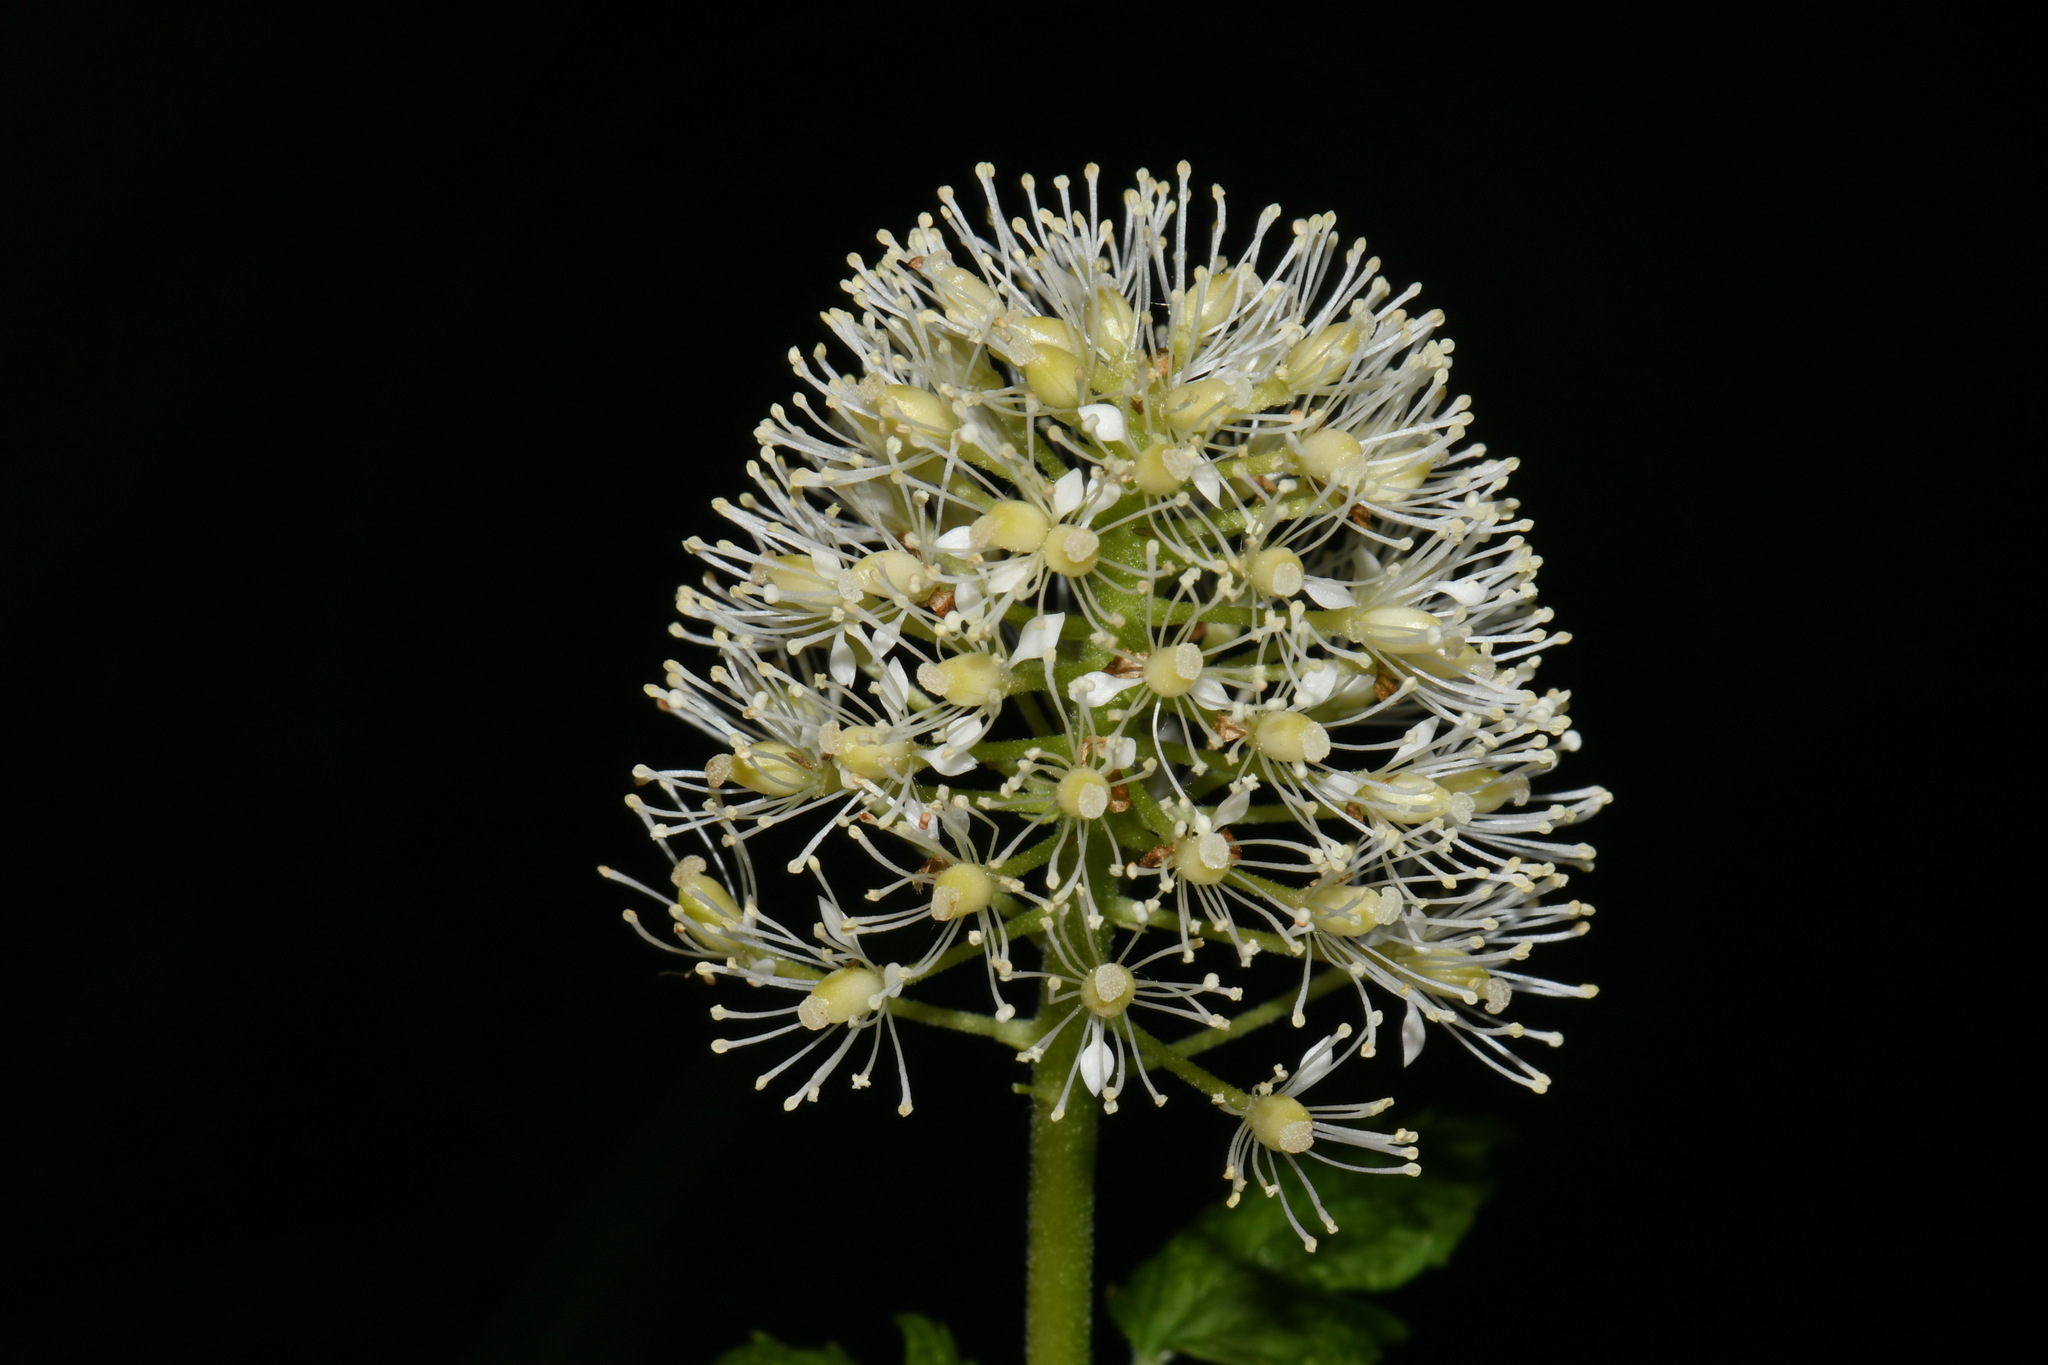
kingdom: Plantae
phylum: Tracheophyta
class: Magnoliopsida
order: Ranunculales
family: Ranunculaceae
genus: Actaea
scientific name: Actaea rubra
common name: Red baneberry
